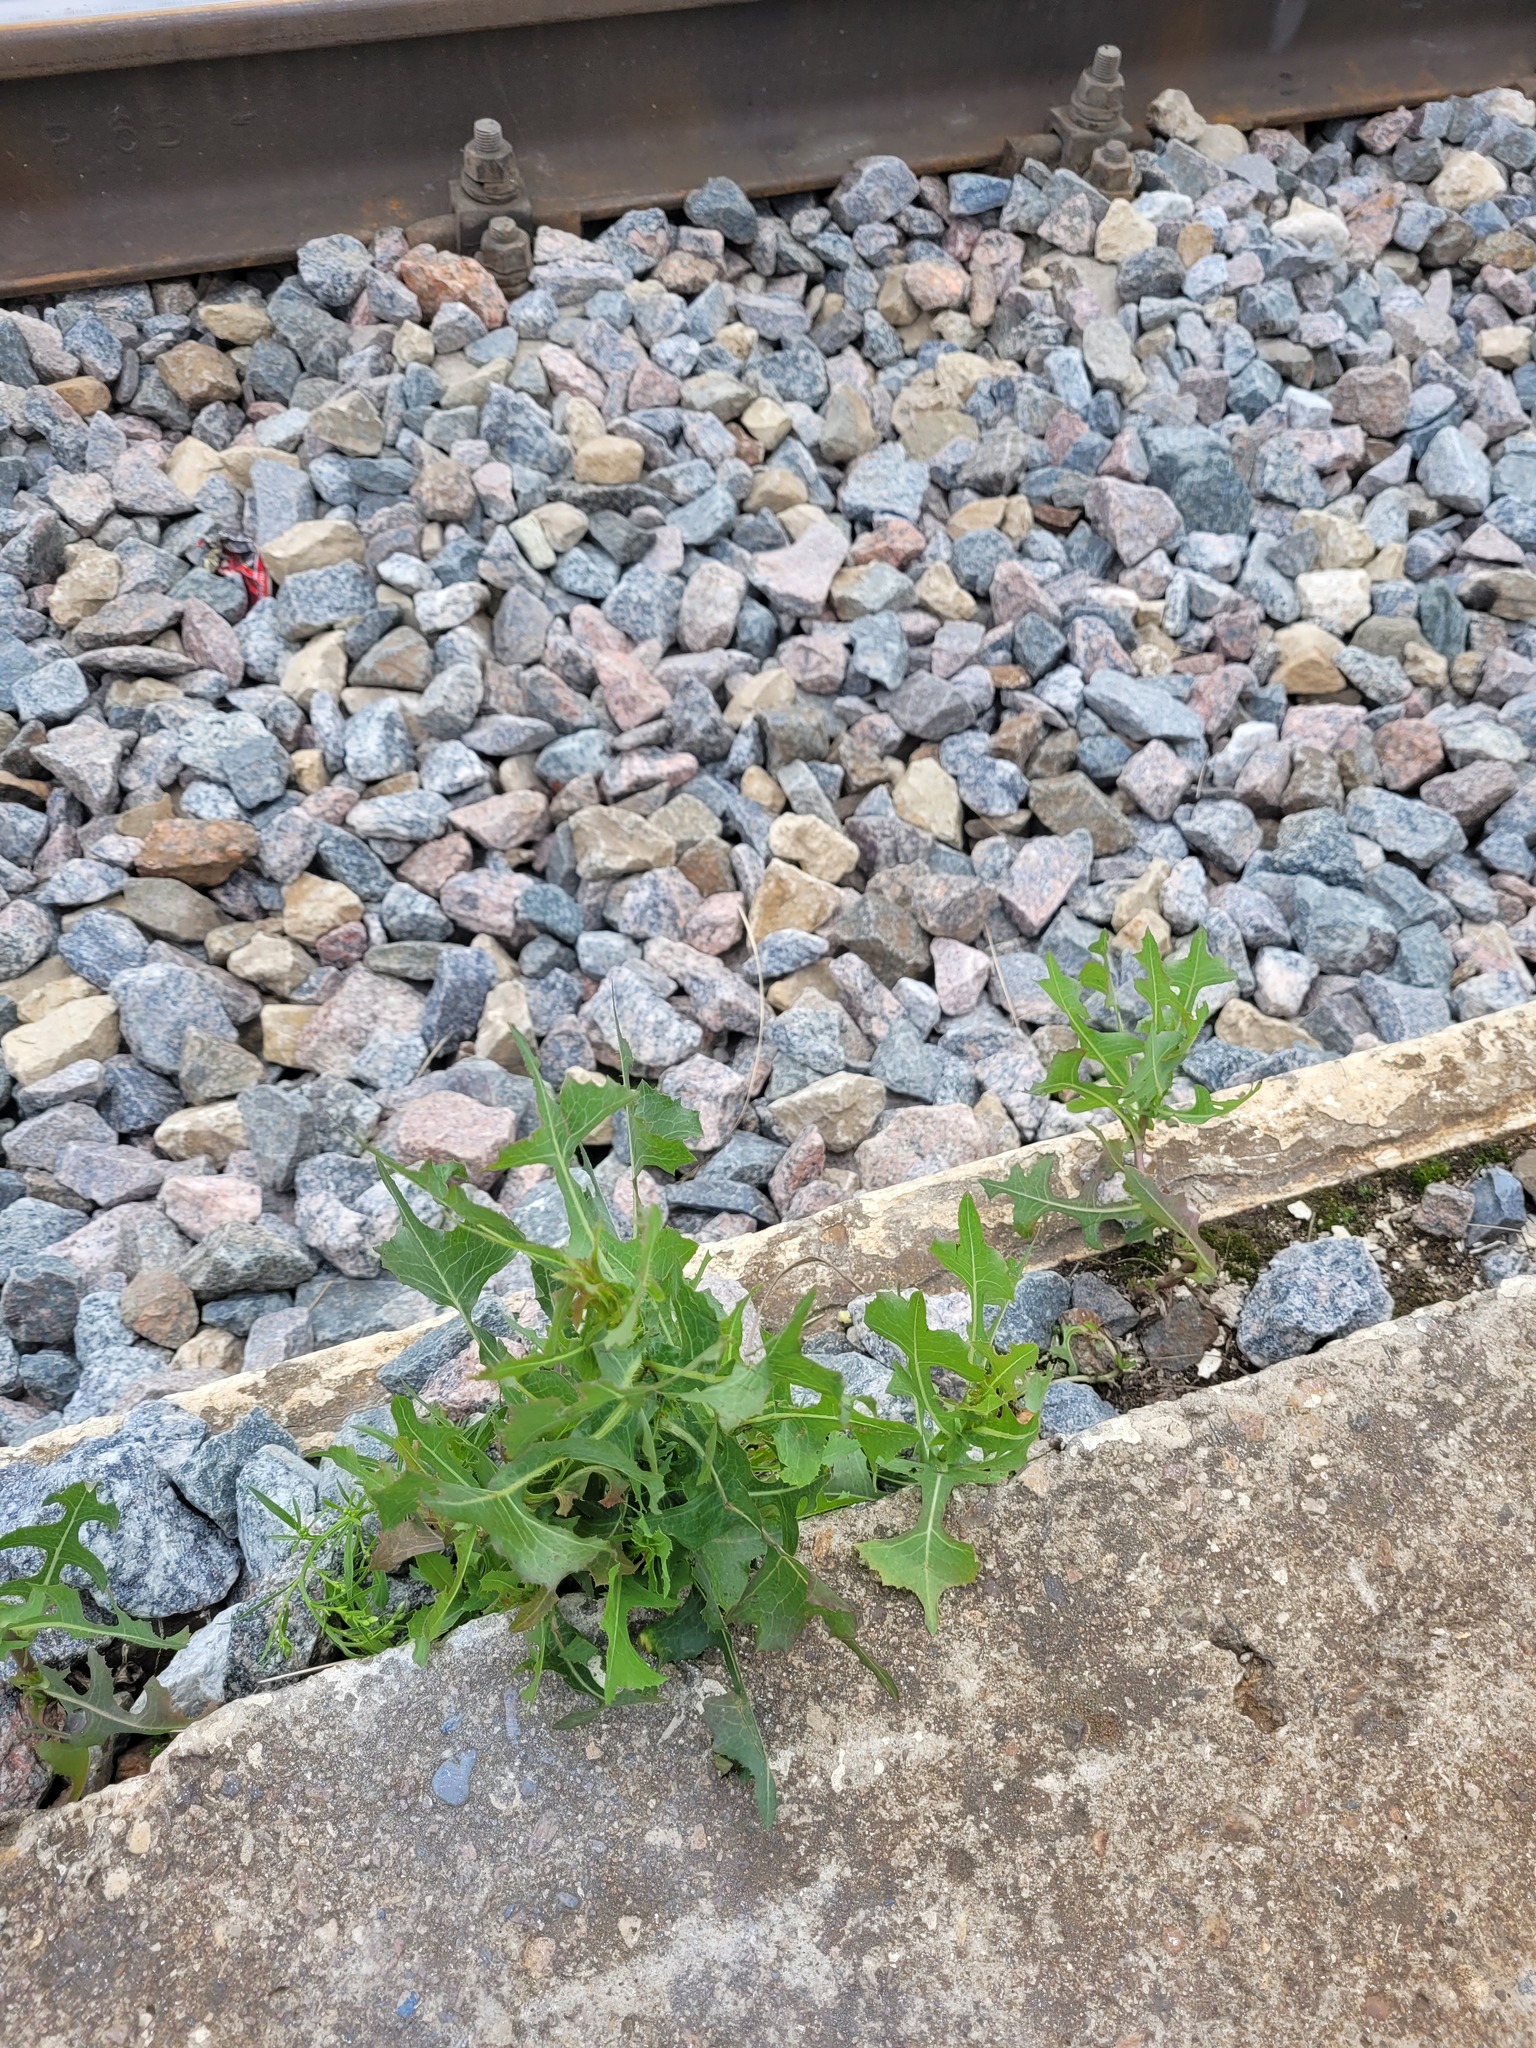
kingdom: Plantae
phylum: Tracheophyta
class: Magnoliopsida
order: Asterales
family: Asteraceae
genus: Lactuca
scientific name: Lactuca serriola
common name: Prickly lettuce
